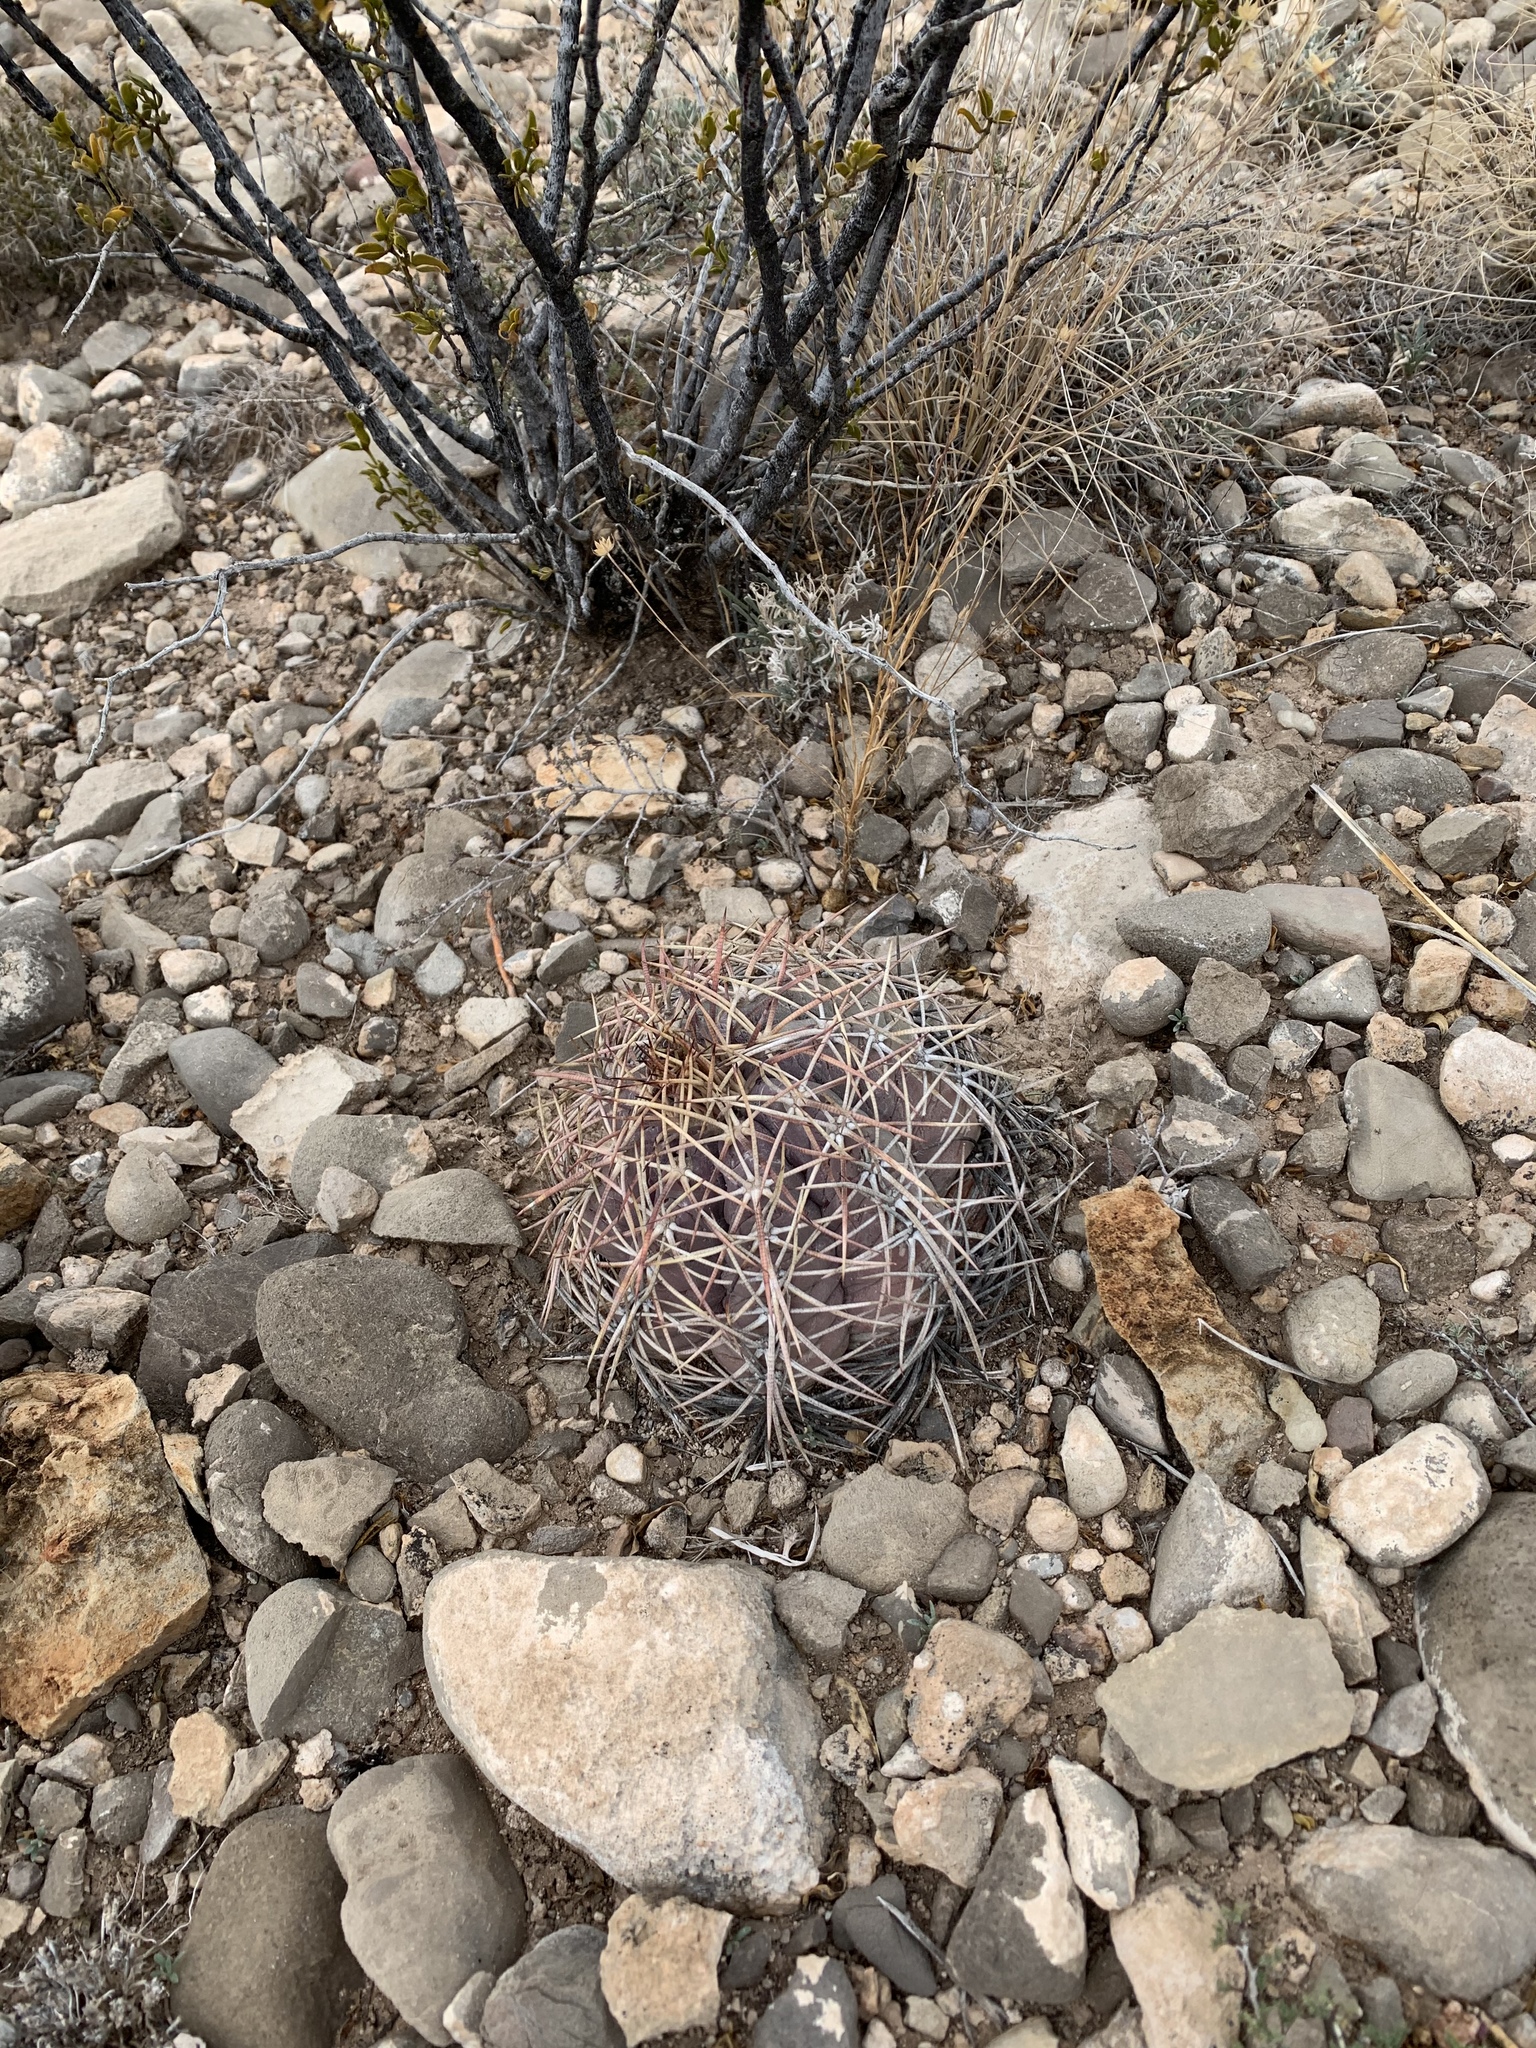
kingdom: Plantae
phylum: Tracheophyta
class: Magnoliopsida
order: Caryophyllales
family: Cactaceae
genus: Echinocactus
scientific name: Echinocactus horizonthalonius
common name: Devilshead
